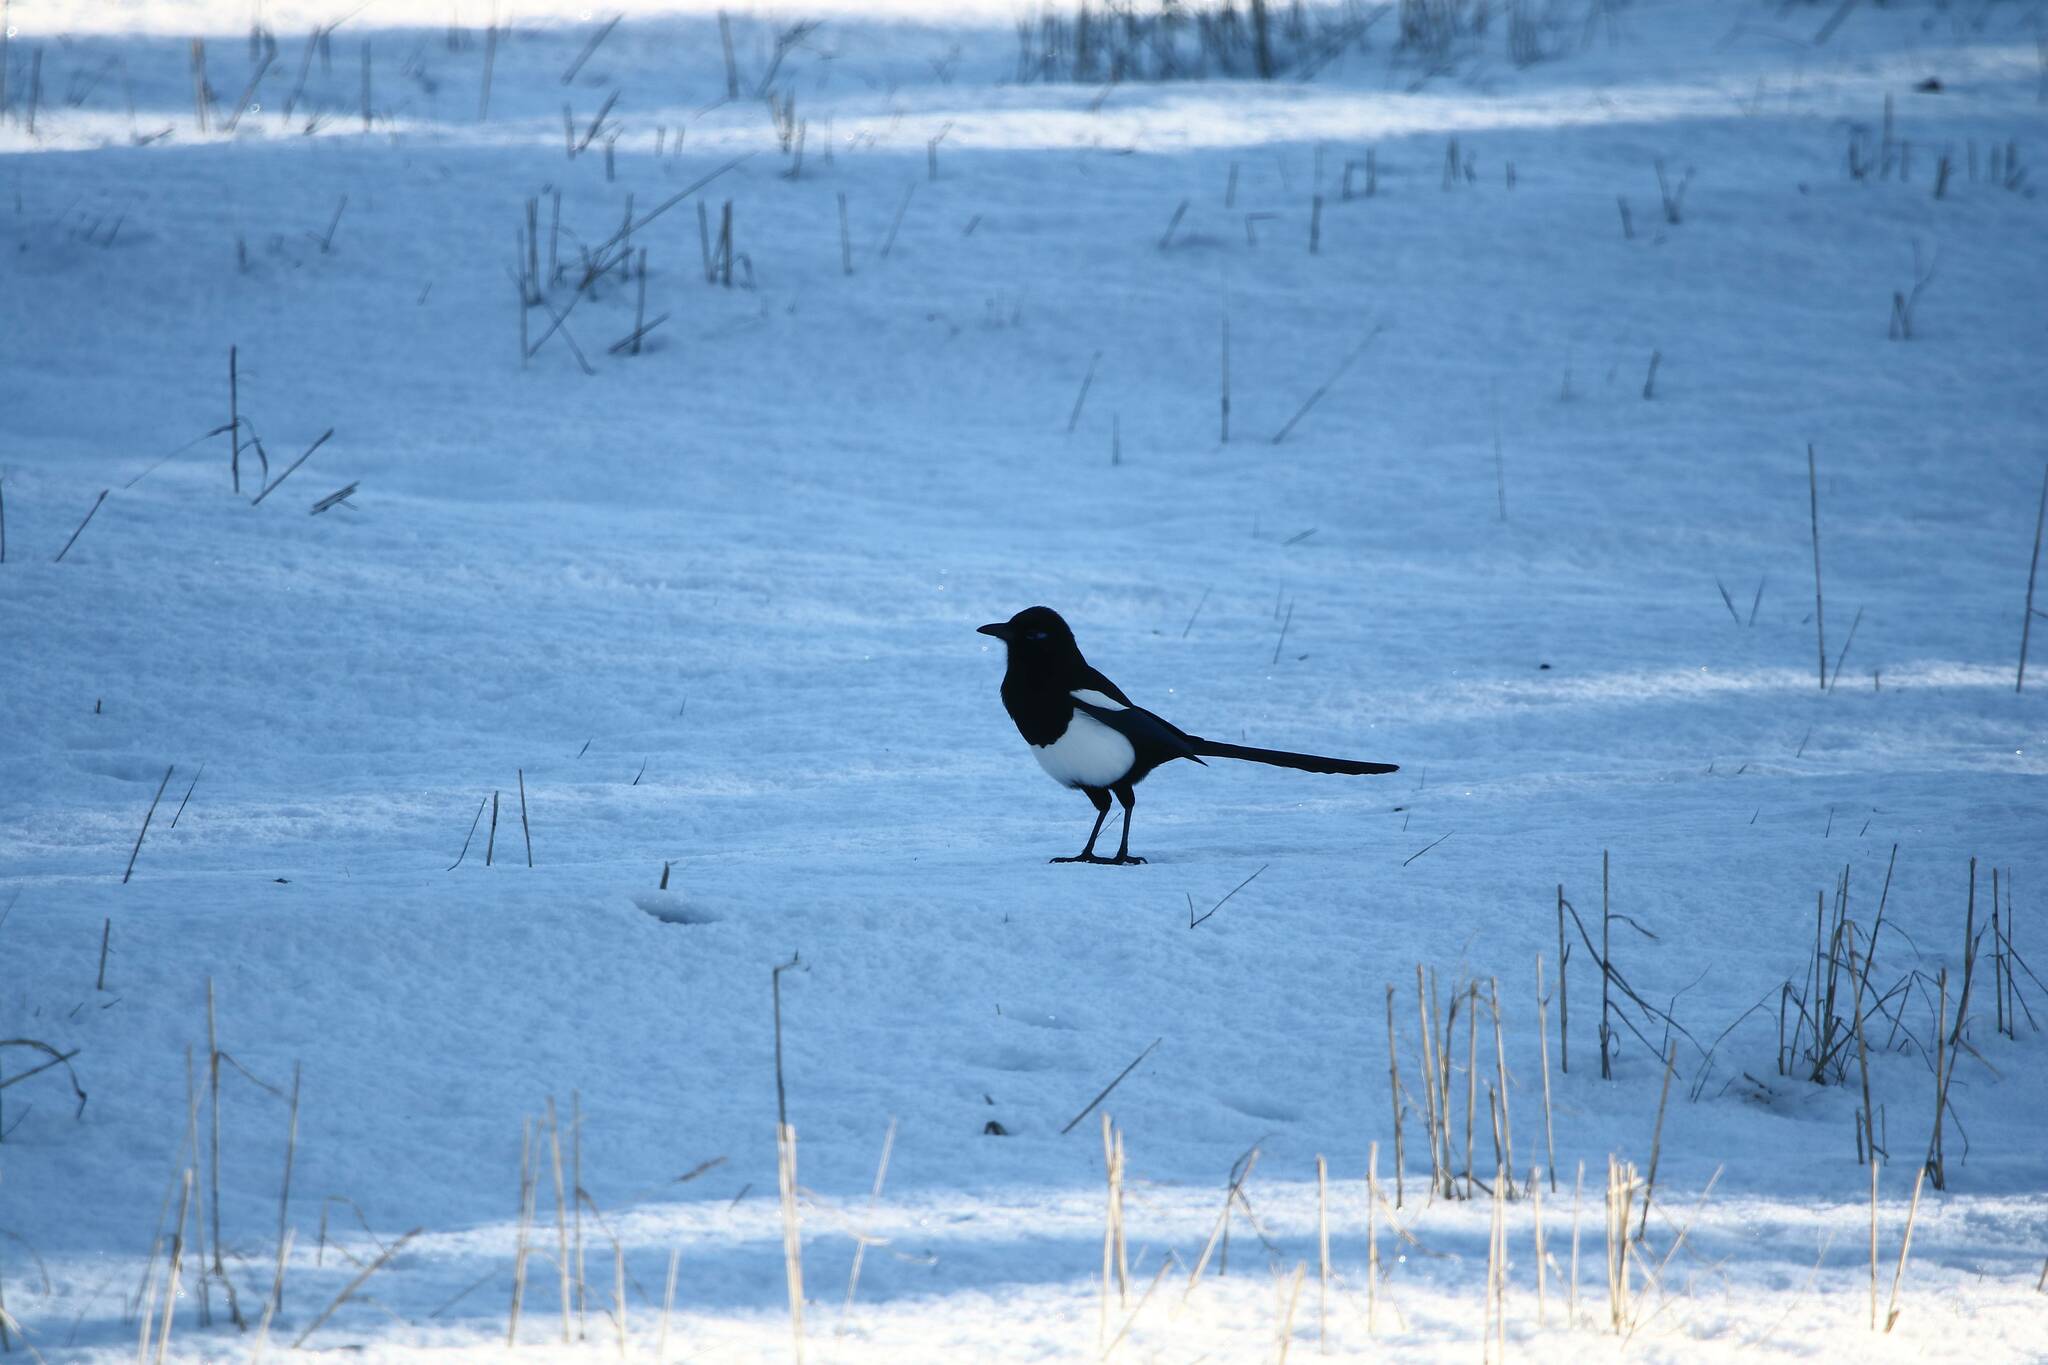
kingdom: Animalia
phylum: Chordata
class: Aves
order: Passeriformes
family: Corvidae
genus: Pica
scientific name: Pica mauritanica
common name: Maghreb magpie
